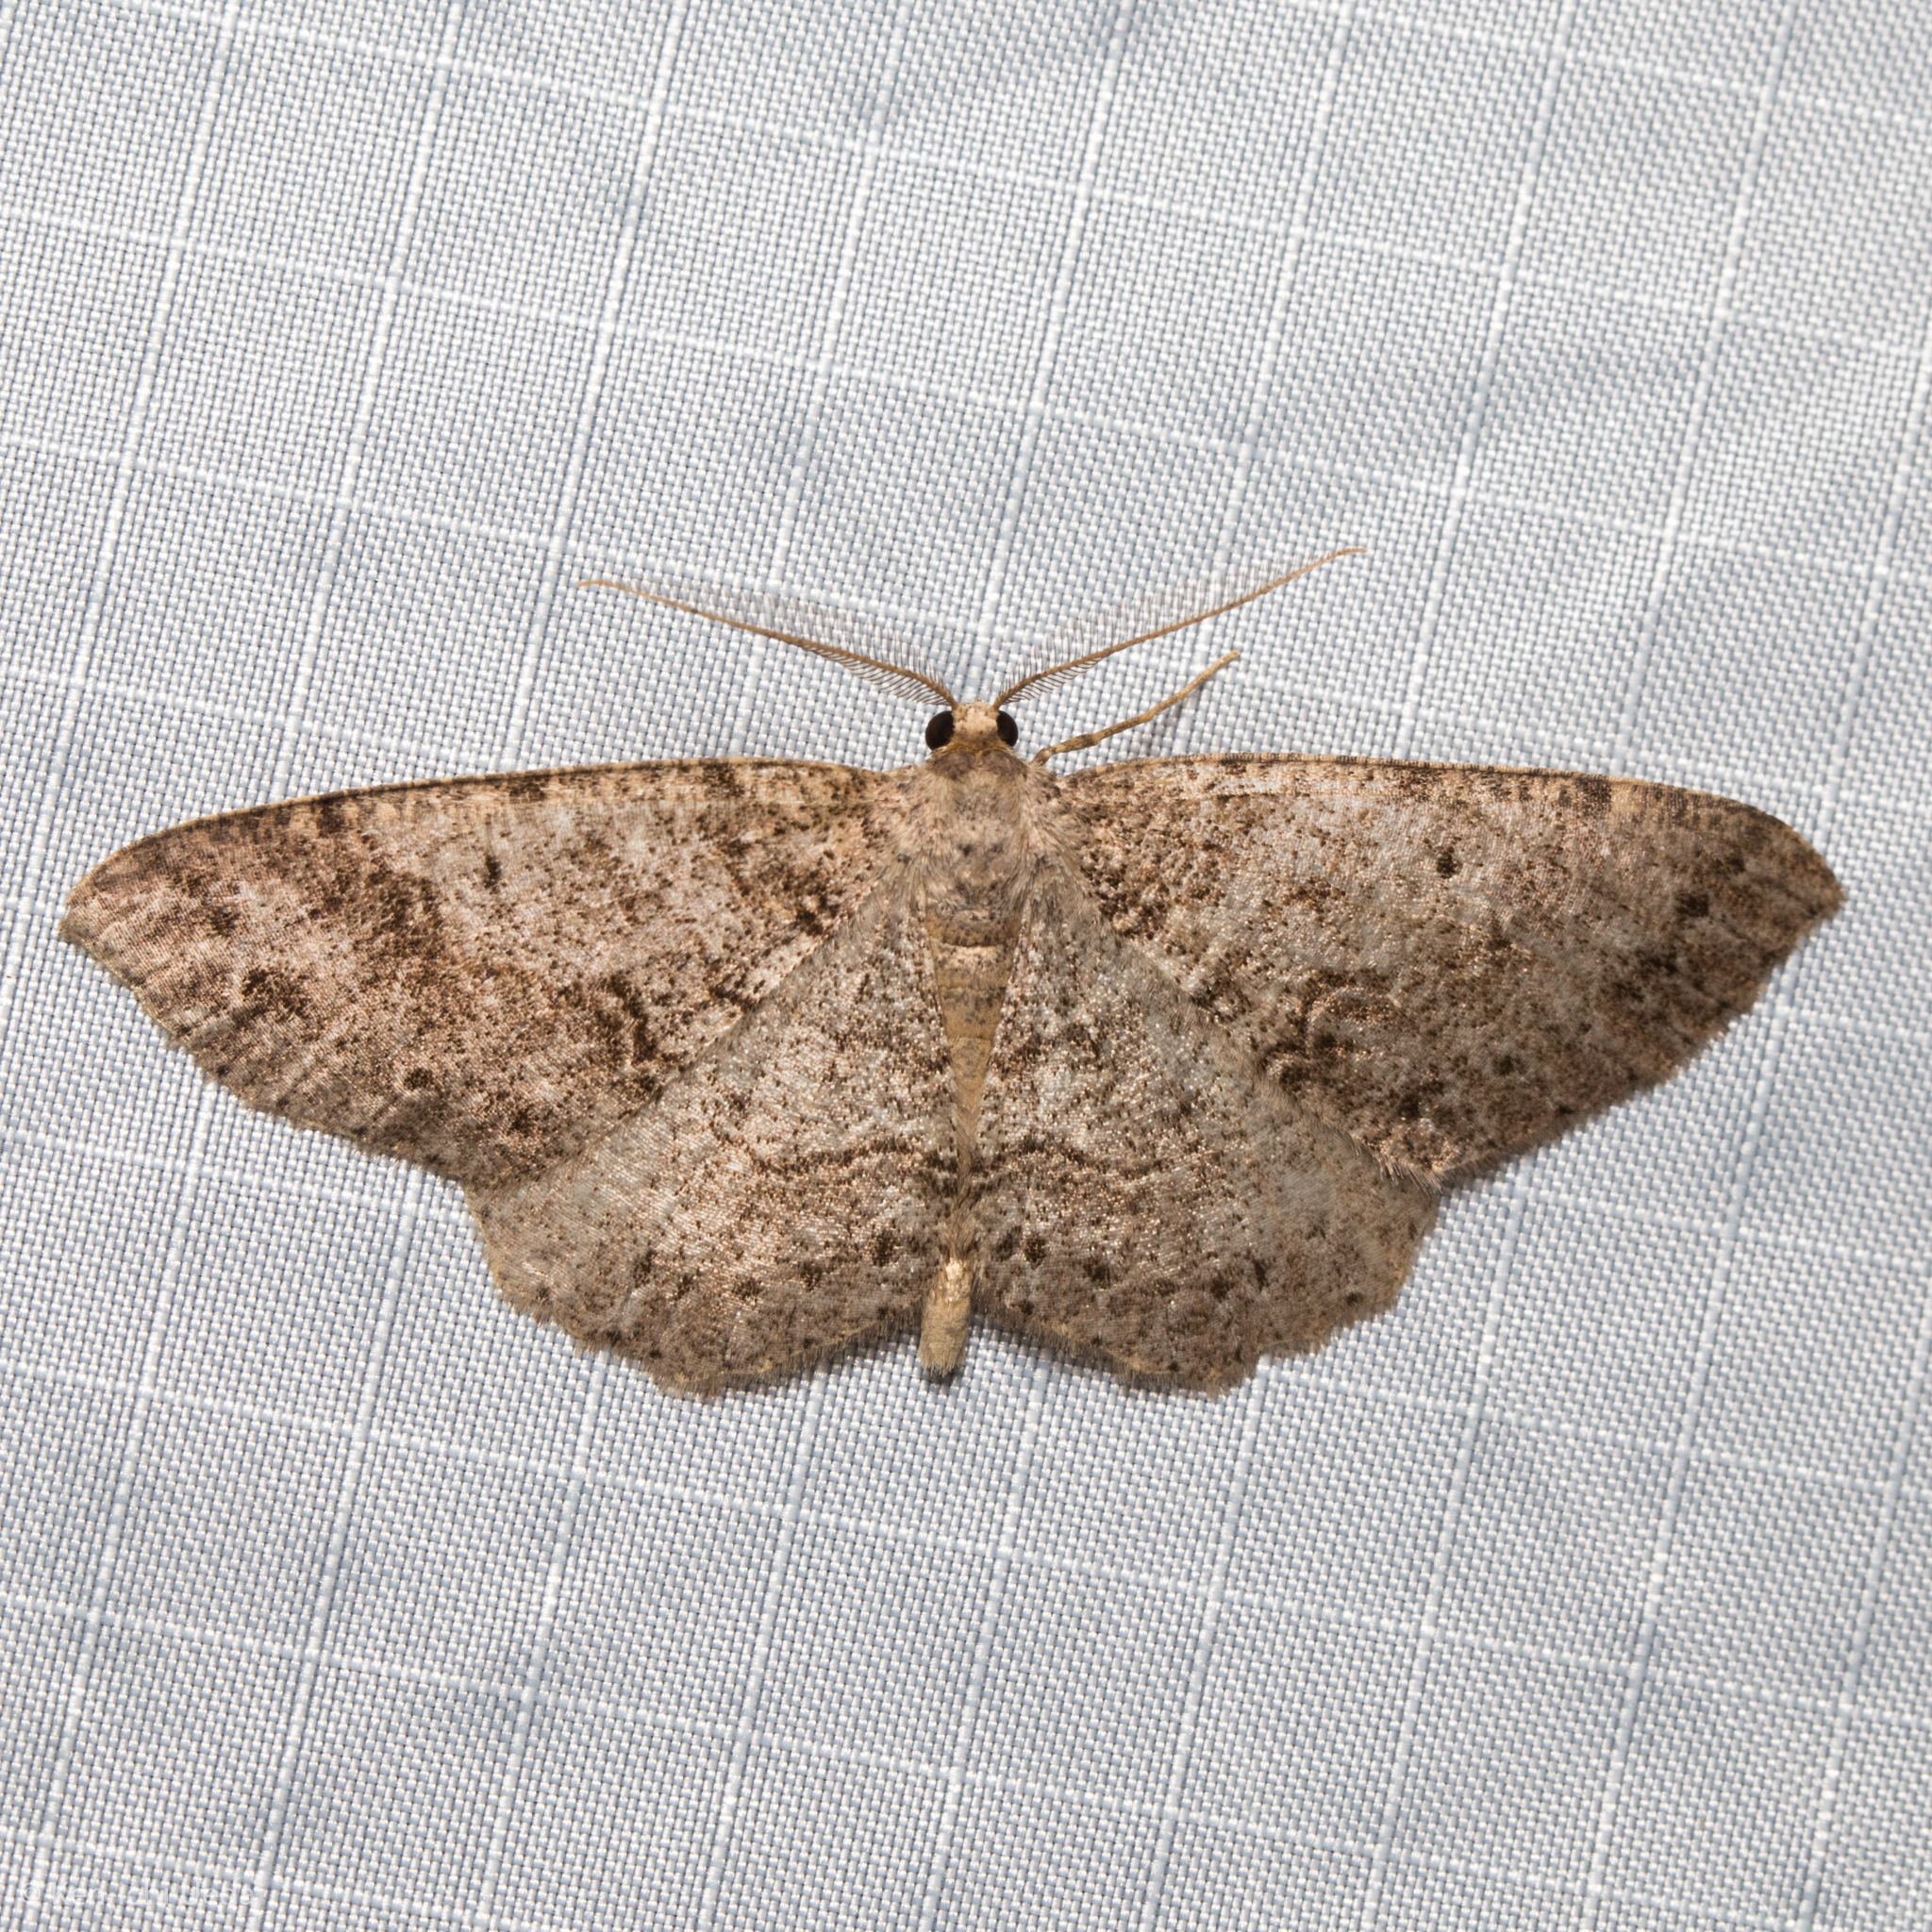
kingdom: Animalia
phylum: Arthropoda
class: Insecta
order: Lepidoptera
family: Geometridae
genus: Melanolophia
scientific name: Melanolophia imitata
